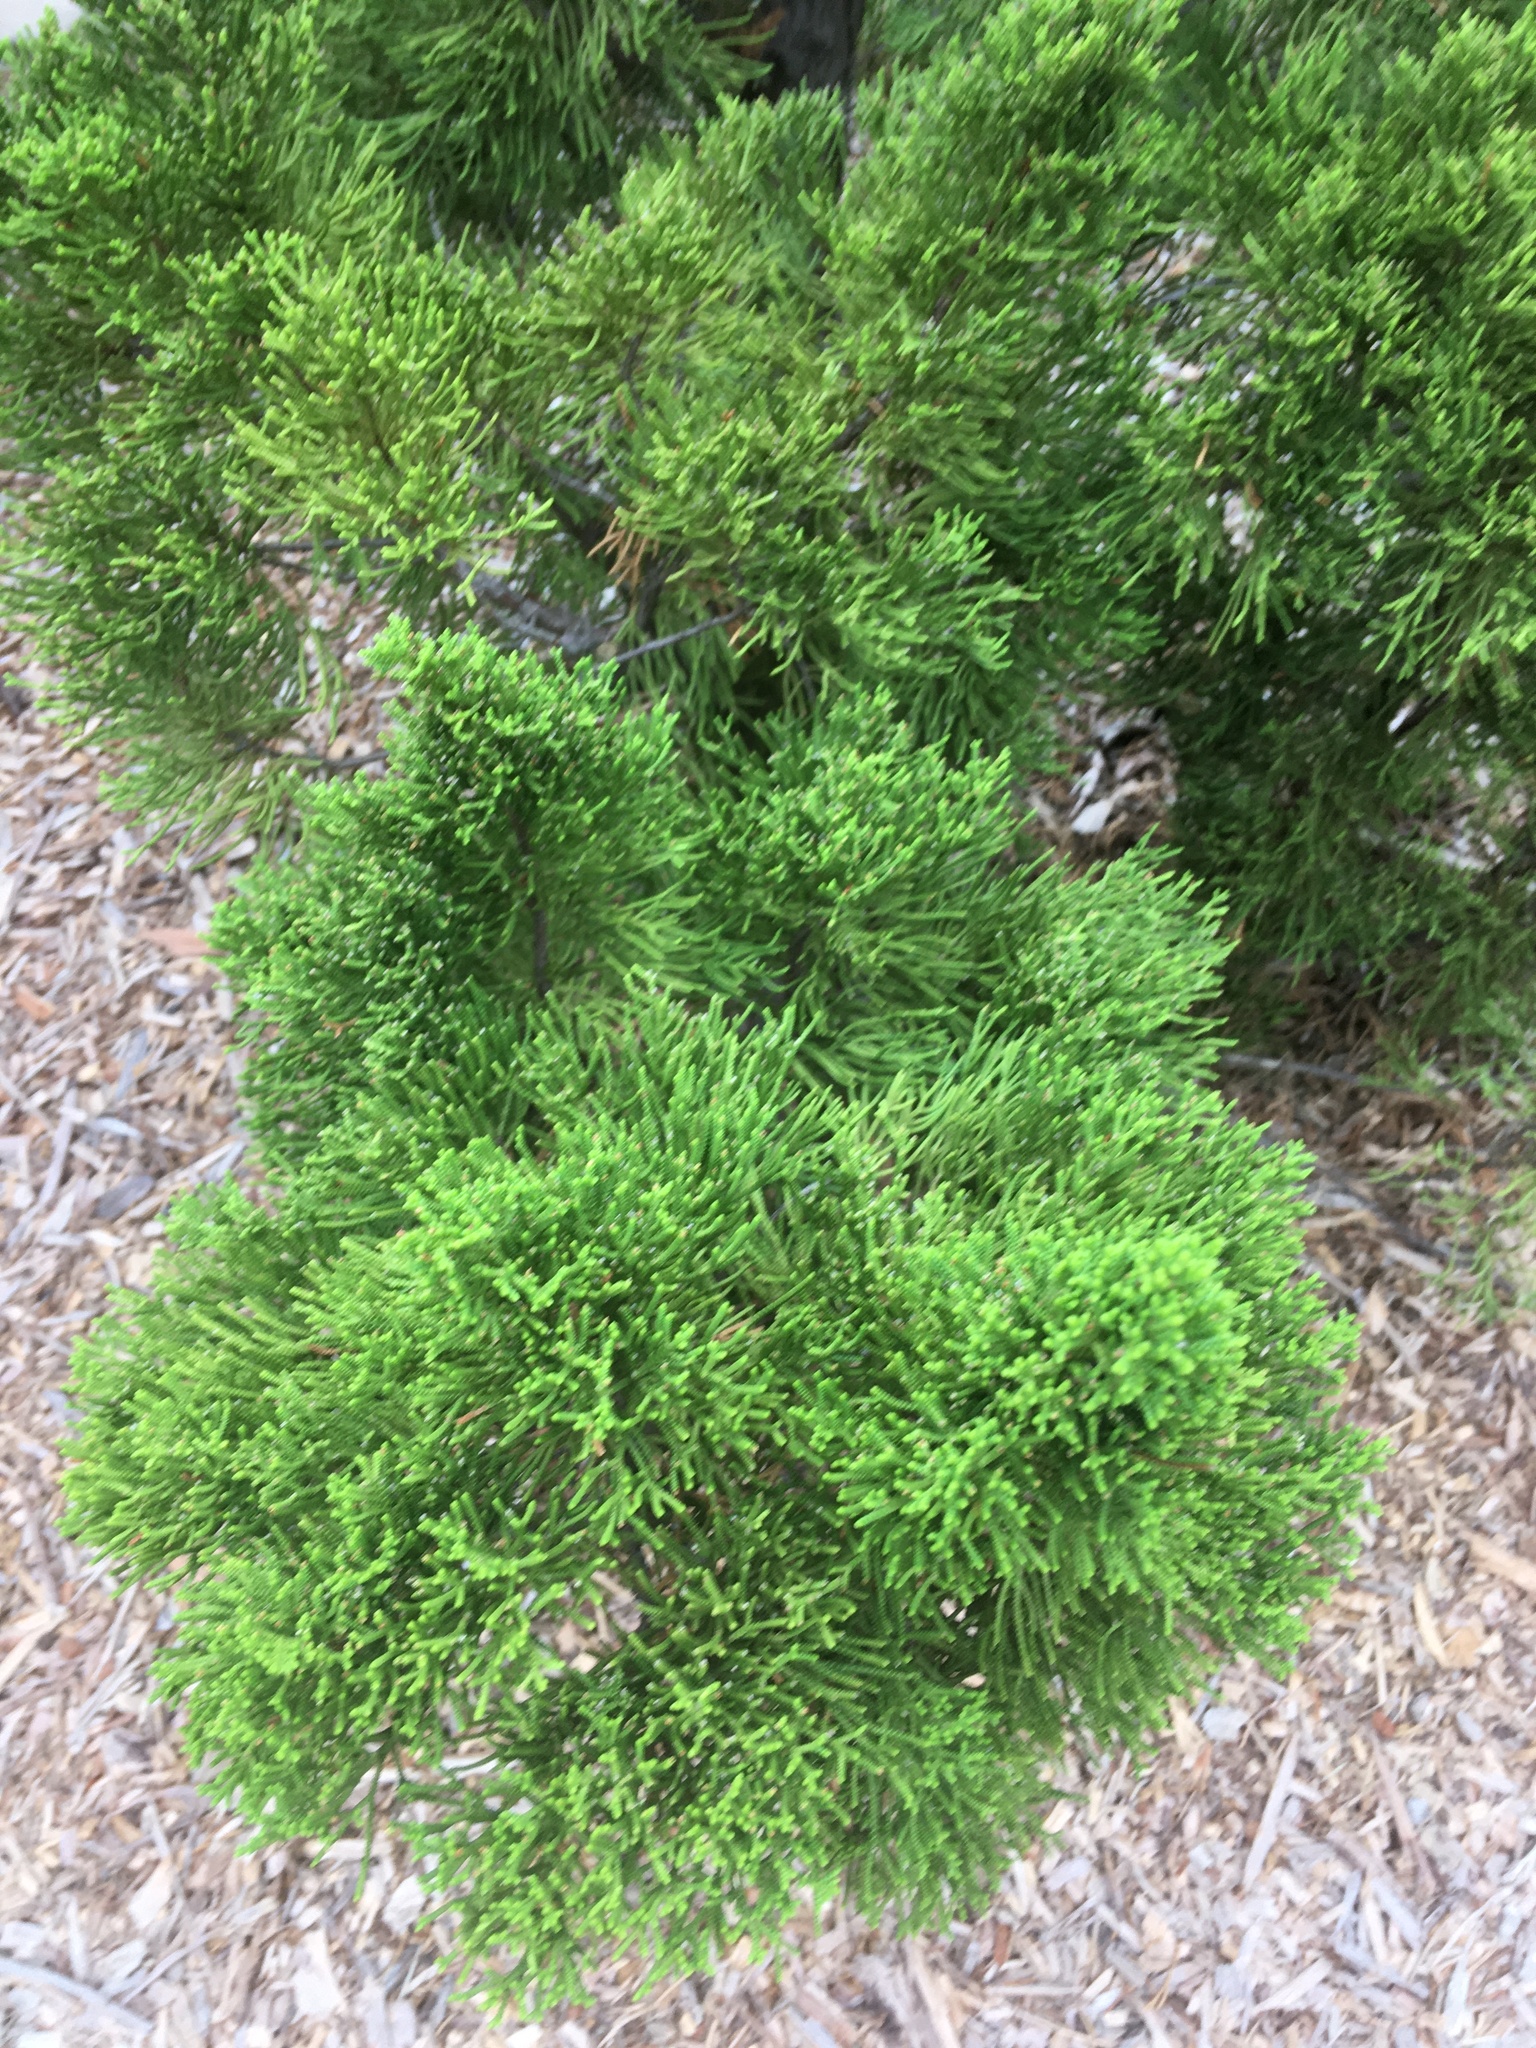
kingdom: Plantae
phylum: Tracheophyta
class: Pinopsida
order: Pinales
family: Cupressaceae
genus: Juniperus
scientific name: Juniperus virginiana
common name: Red juniper
